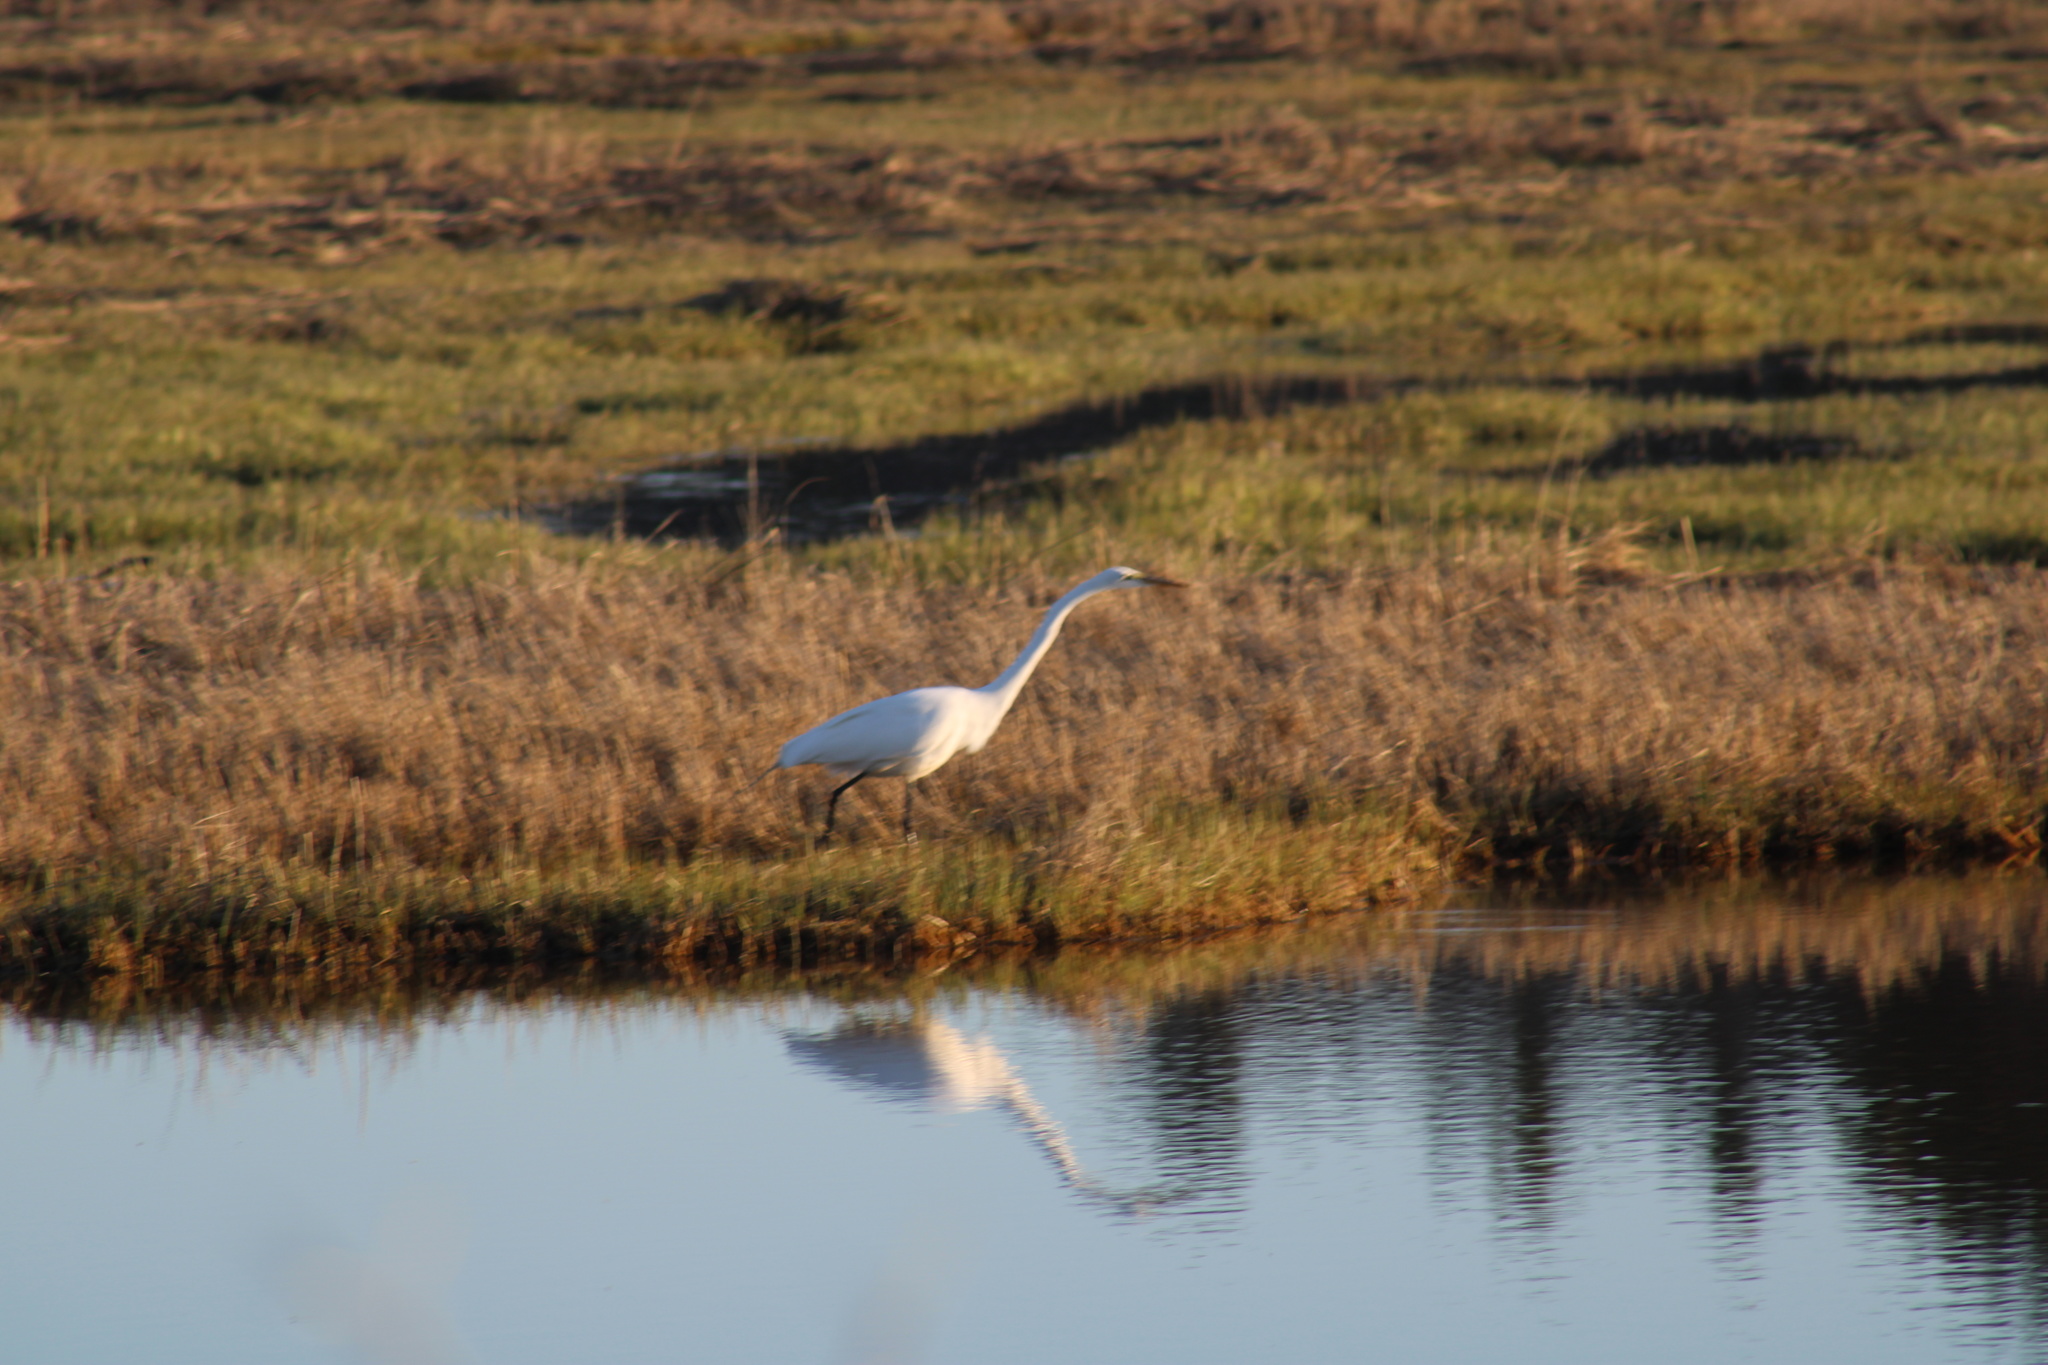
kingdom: Animalia
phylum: Chordata
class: Aves
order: Pelecaniformes
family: Ardeidae
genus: Ardea
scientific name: Ardea alba
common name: Great egret
